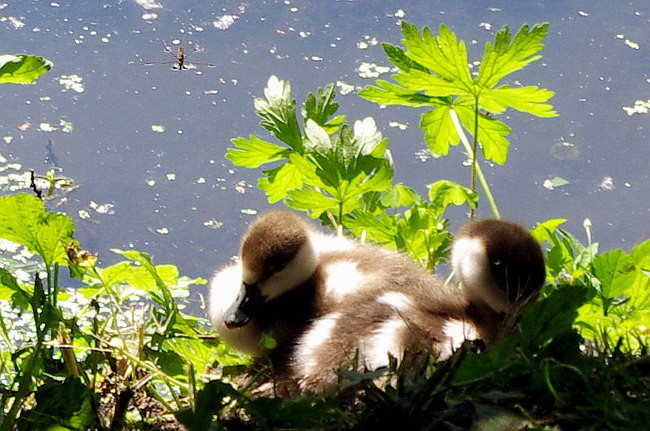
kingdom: Animalia
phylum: Chordata
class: Aves
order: Anseriformes
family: Anatidae
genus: Tadorna
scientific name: Tadorna ferruginea
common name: Ruddy shelduck
